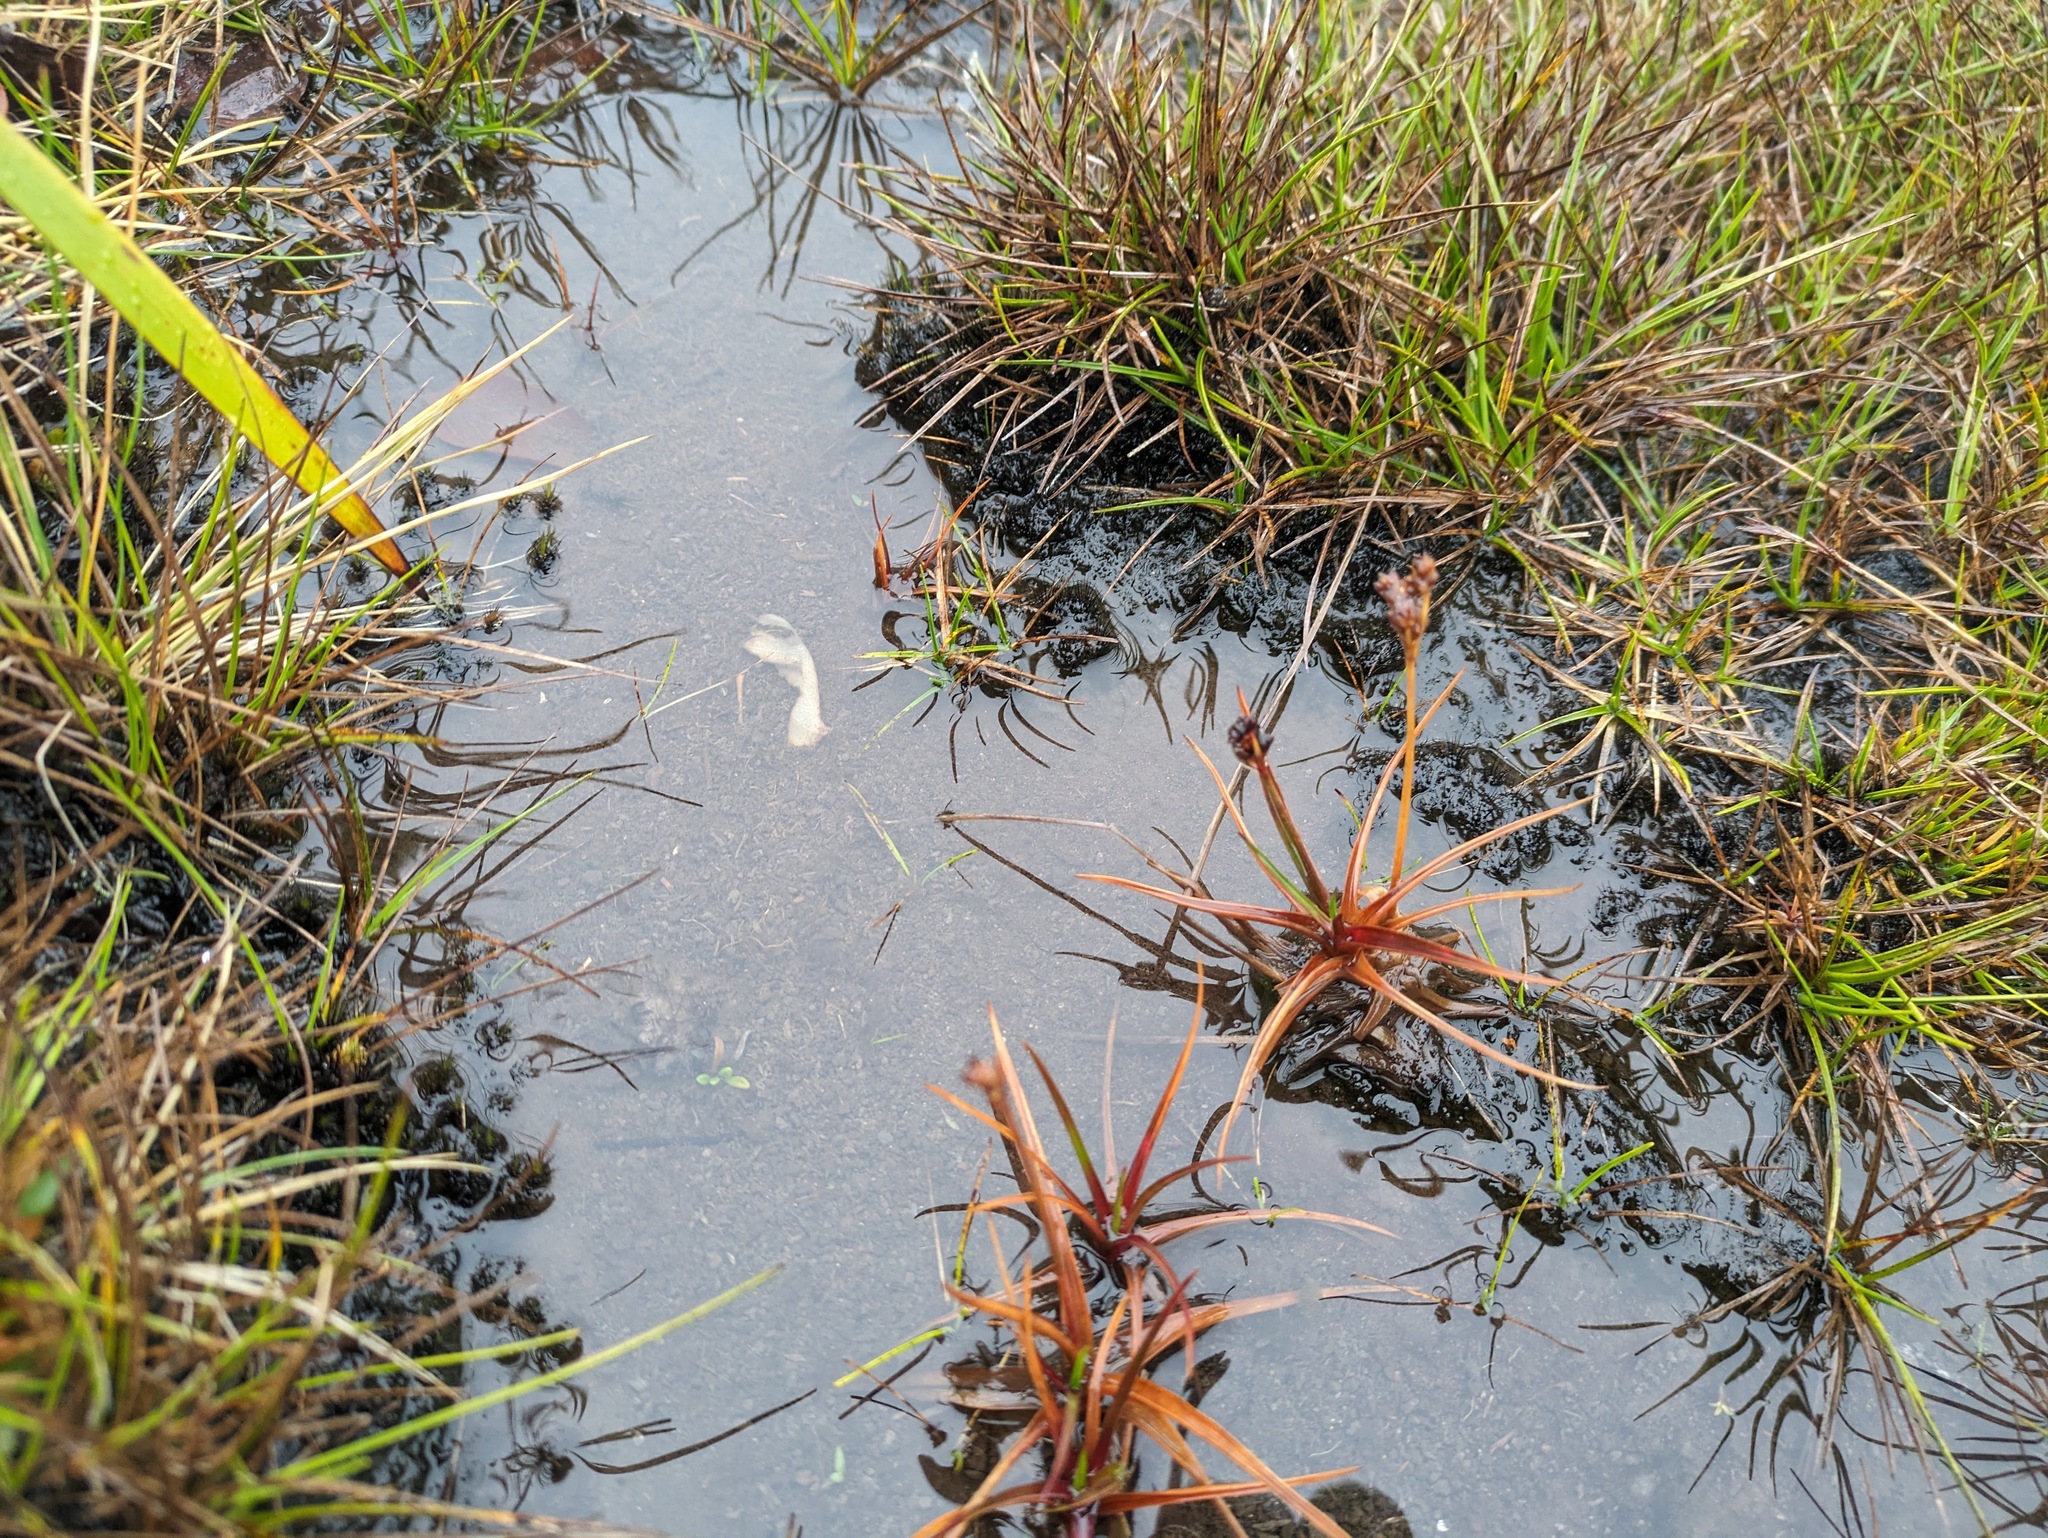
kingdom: Plantae
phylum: Tracheophyta
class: Liliopsida
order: Poales
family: Juncaceae
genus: Juncus
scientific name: Juncus planifolius
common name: Broadleaf rush
